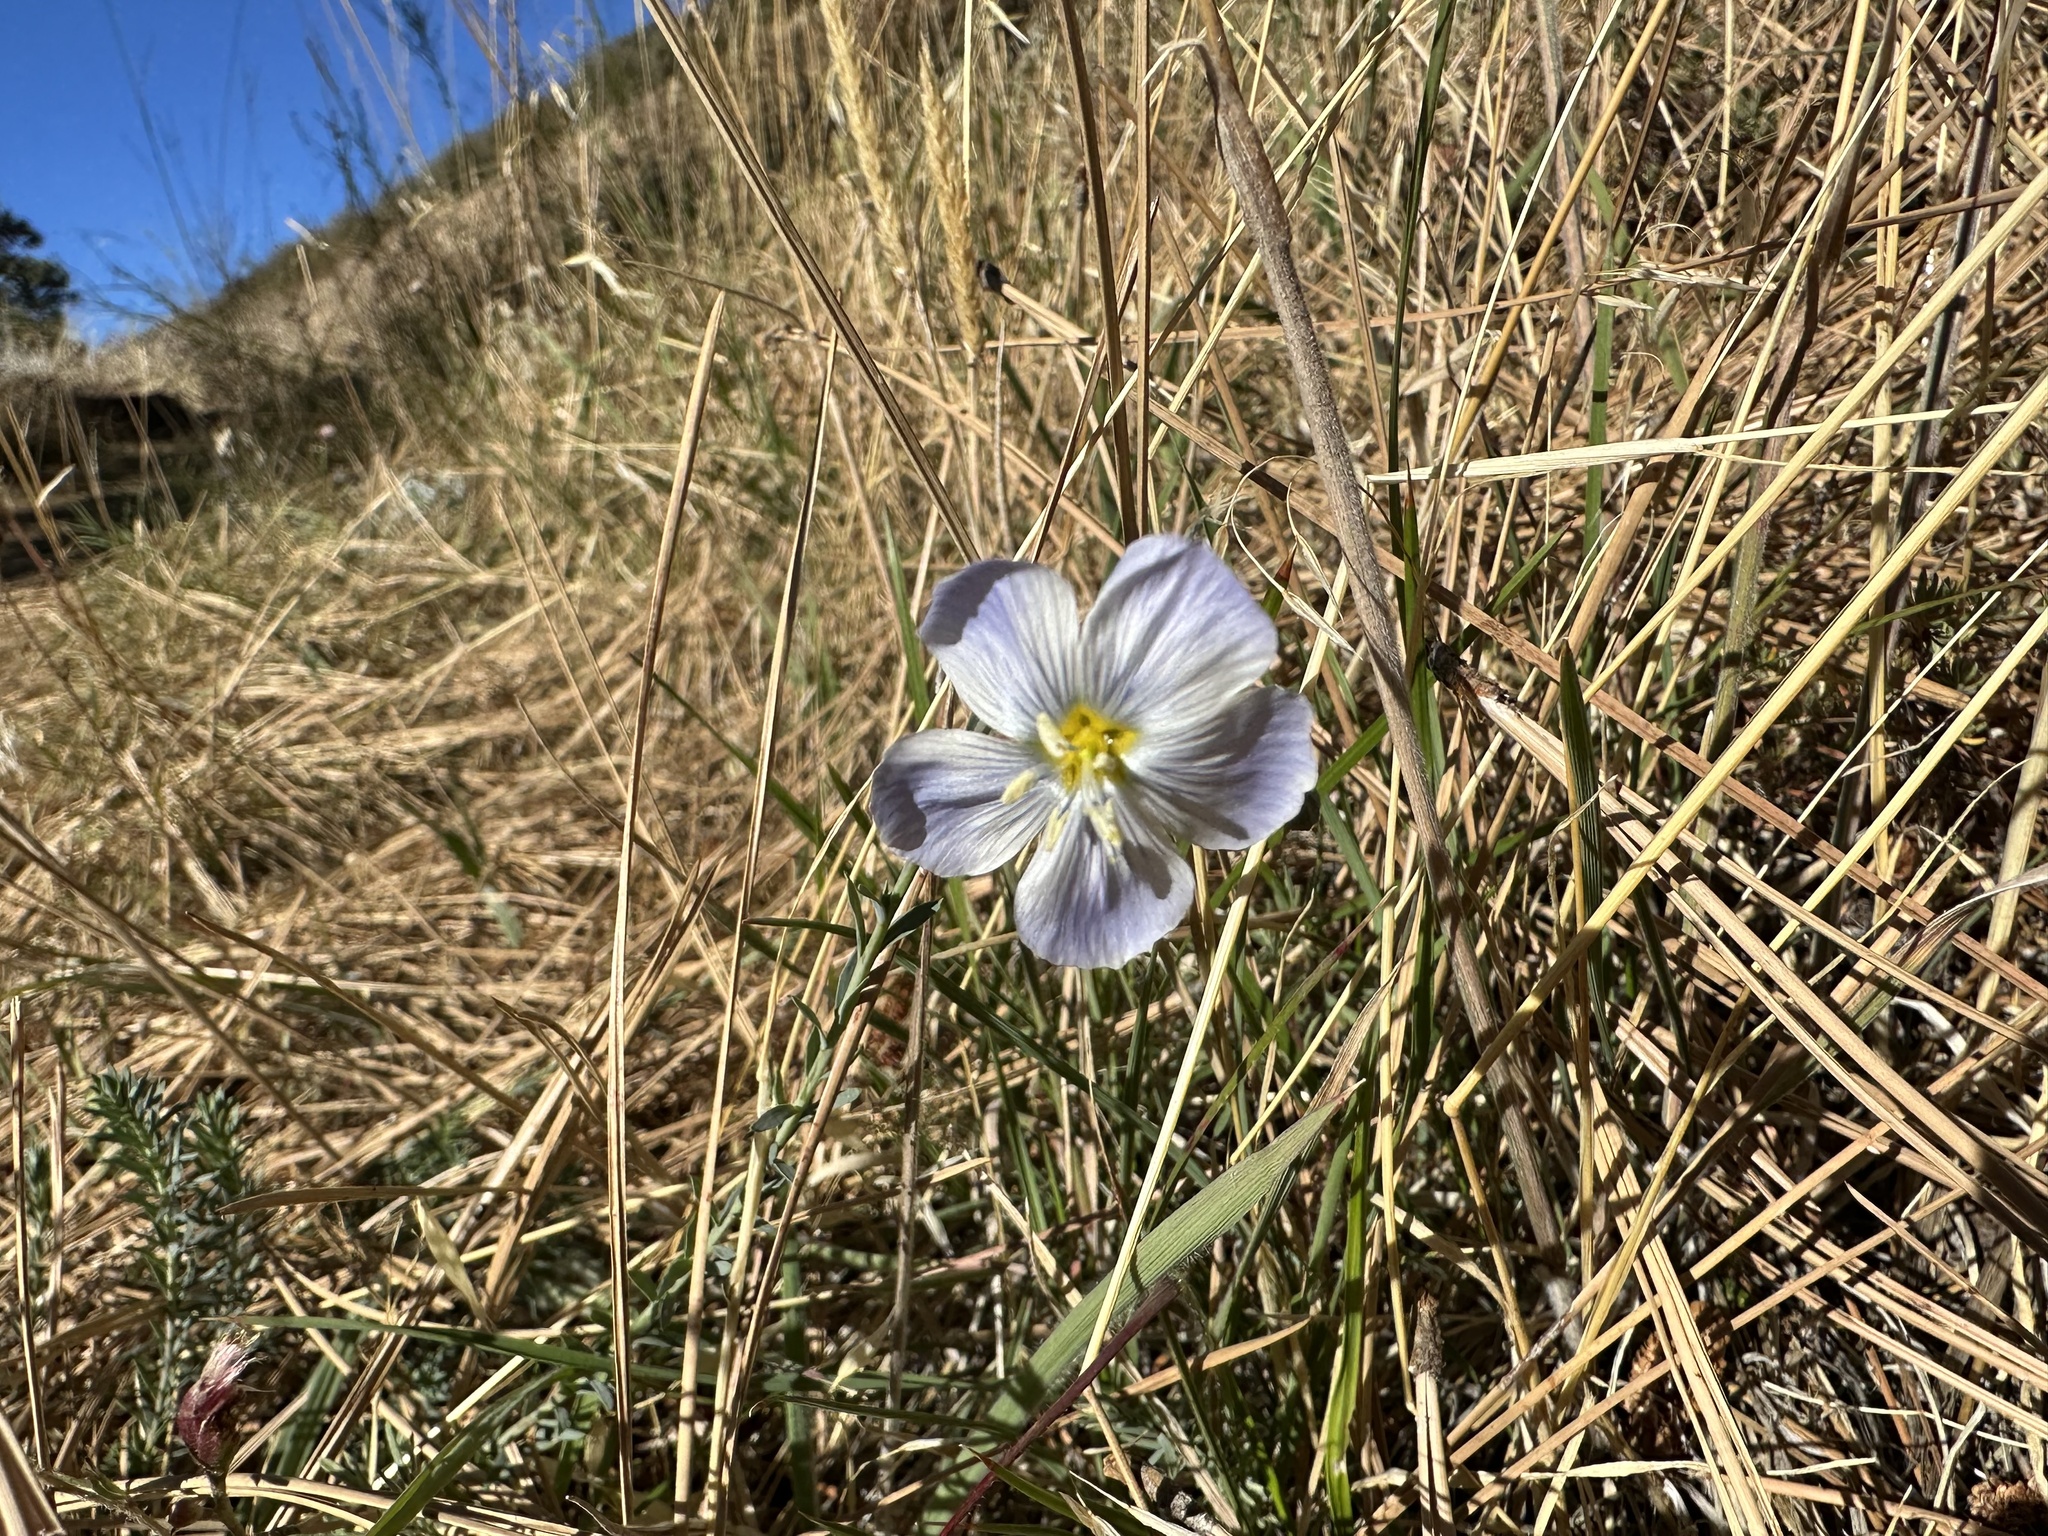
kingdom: Plantae
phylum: Tracheophyta
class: Magnoliopsida
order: Malpighiales
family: Linaceae
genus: Linum
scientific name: Linum lewisii
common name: Prairie flax
